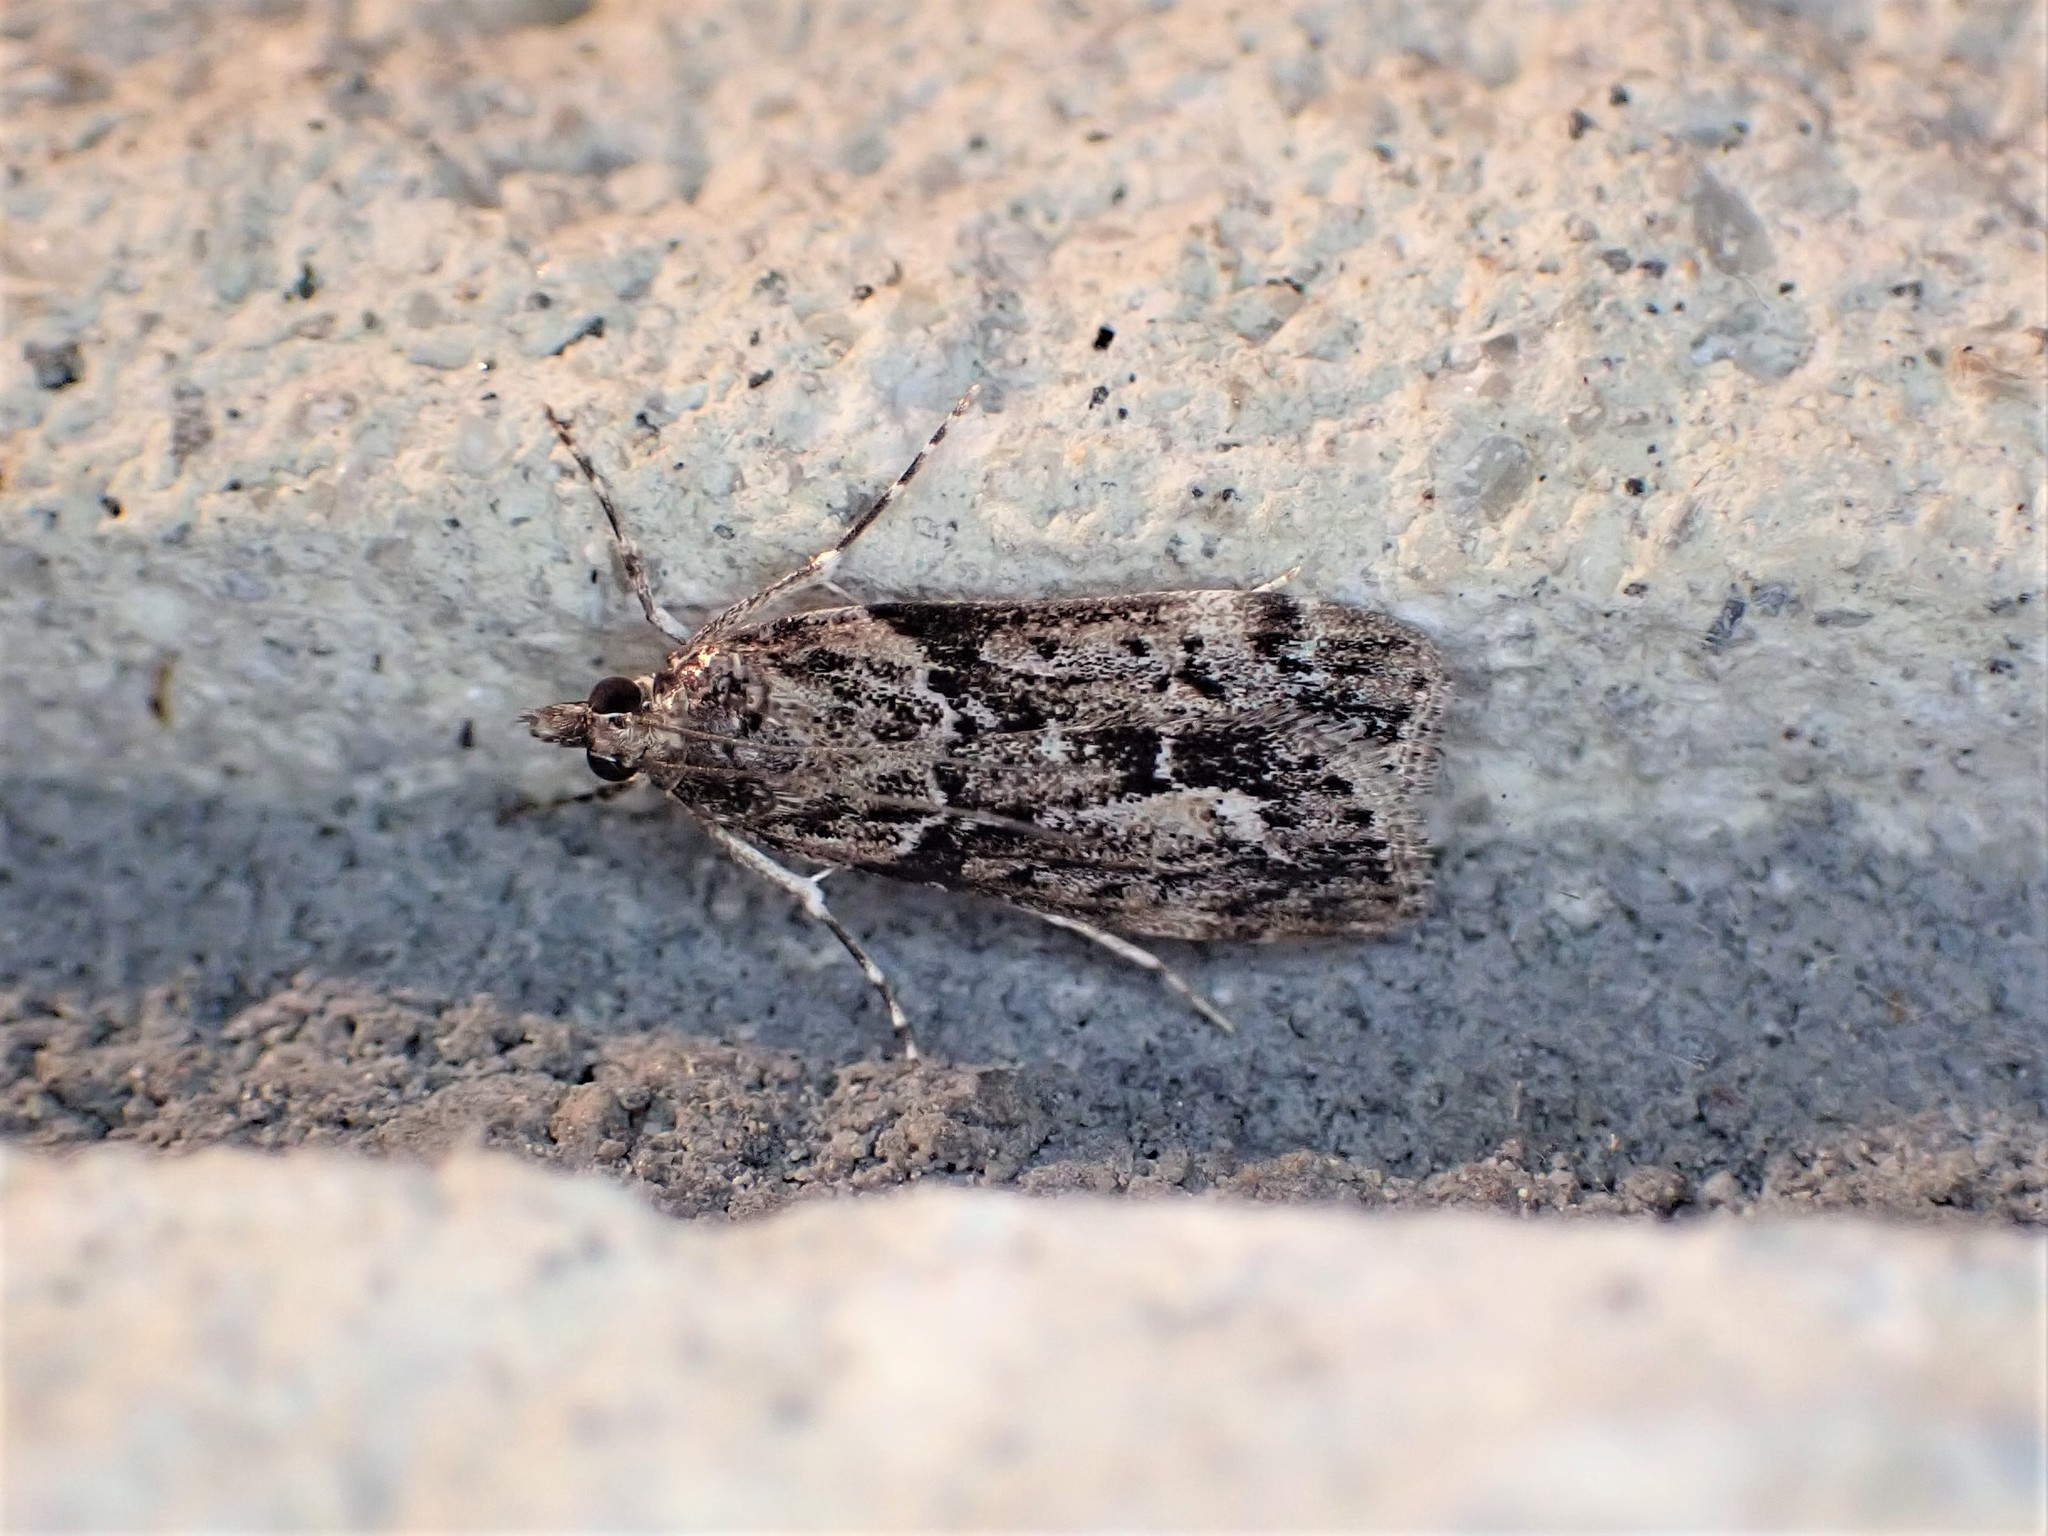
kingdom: Animalia
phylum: Arthropoda
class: Insecta
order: Lepidoptera
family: Crambidae
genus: Eudonia
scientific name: Eudonia submarginalis
